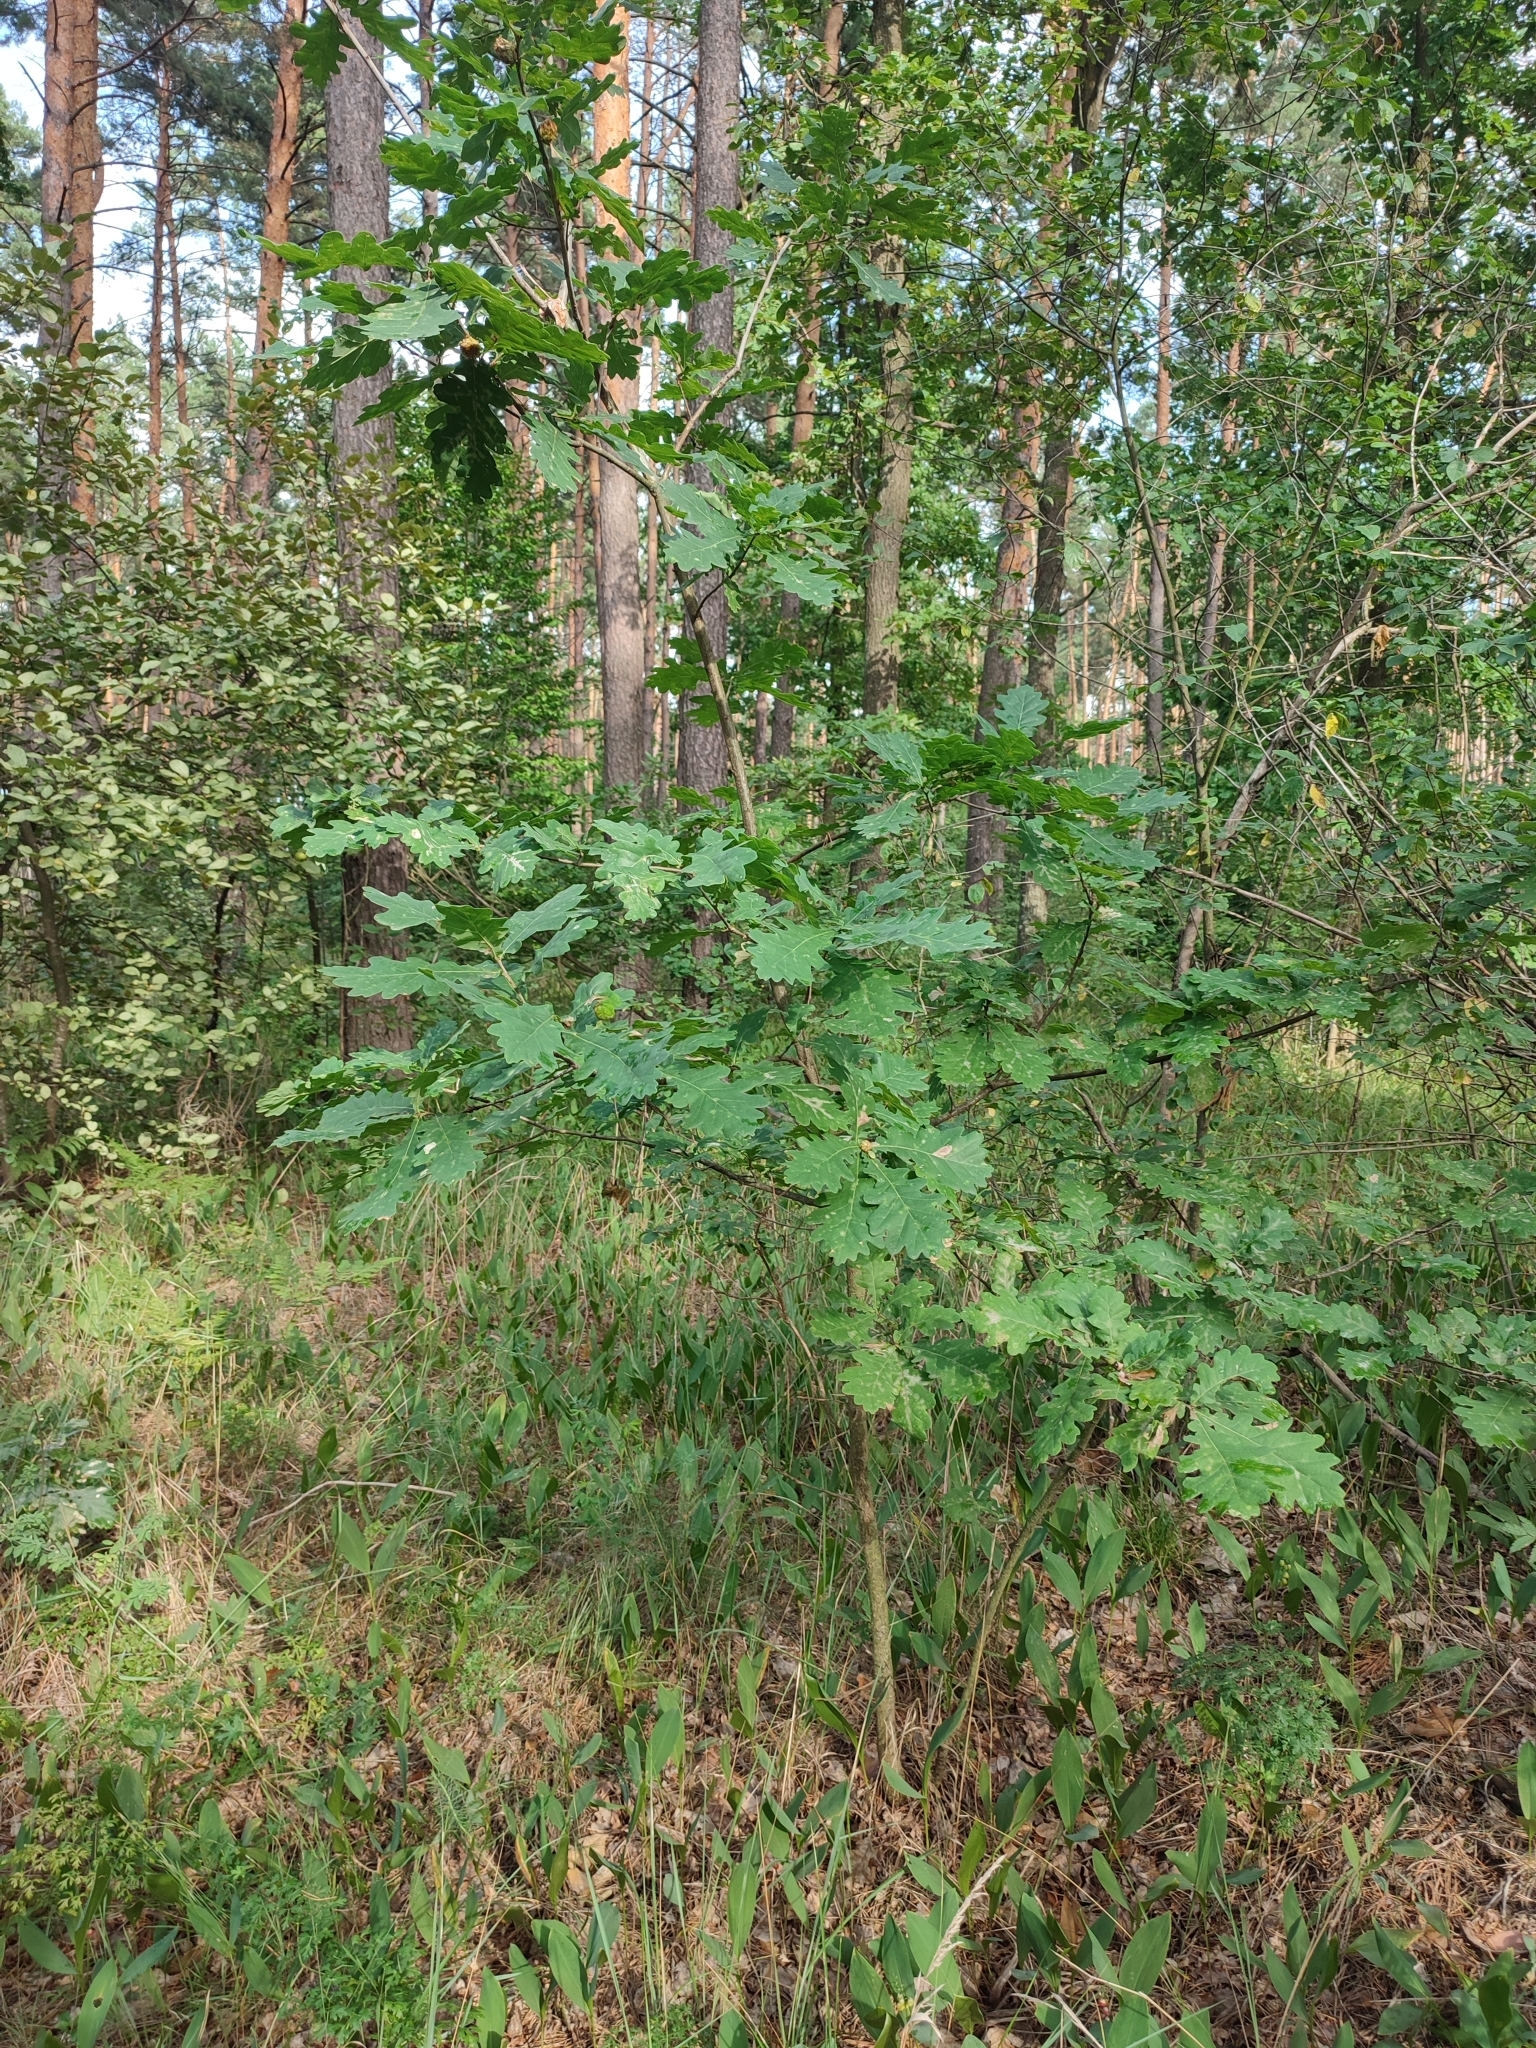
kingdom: Plantae
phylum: Tracheophyta
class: Magnoliopsida
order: Fagales
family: Fagaceae
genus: Quercus
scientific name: Quercus robur
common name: Pedunculate oak
